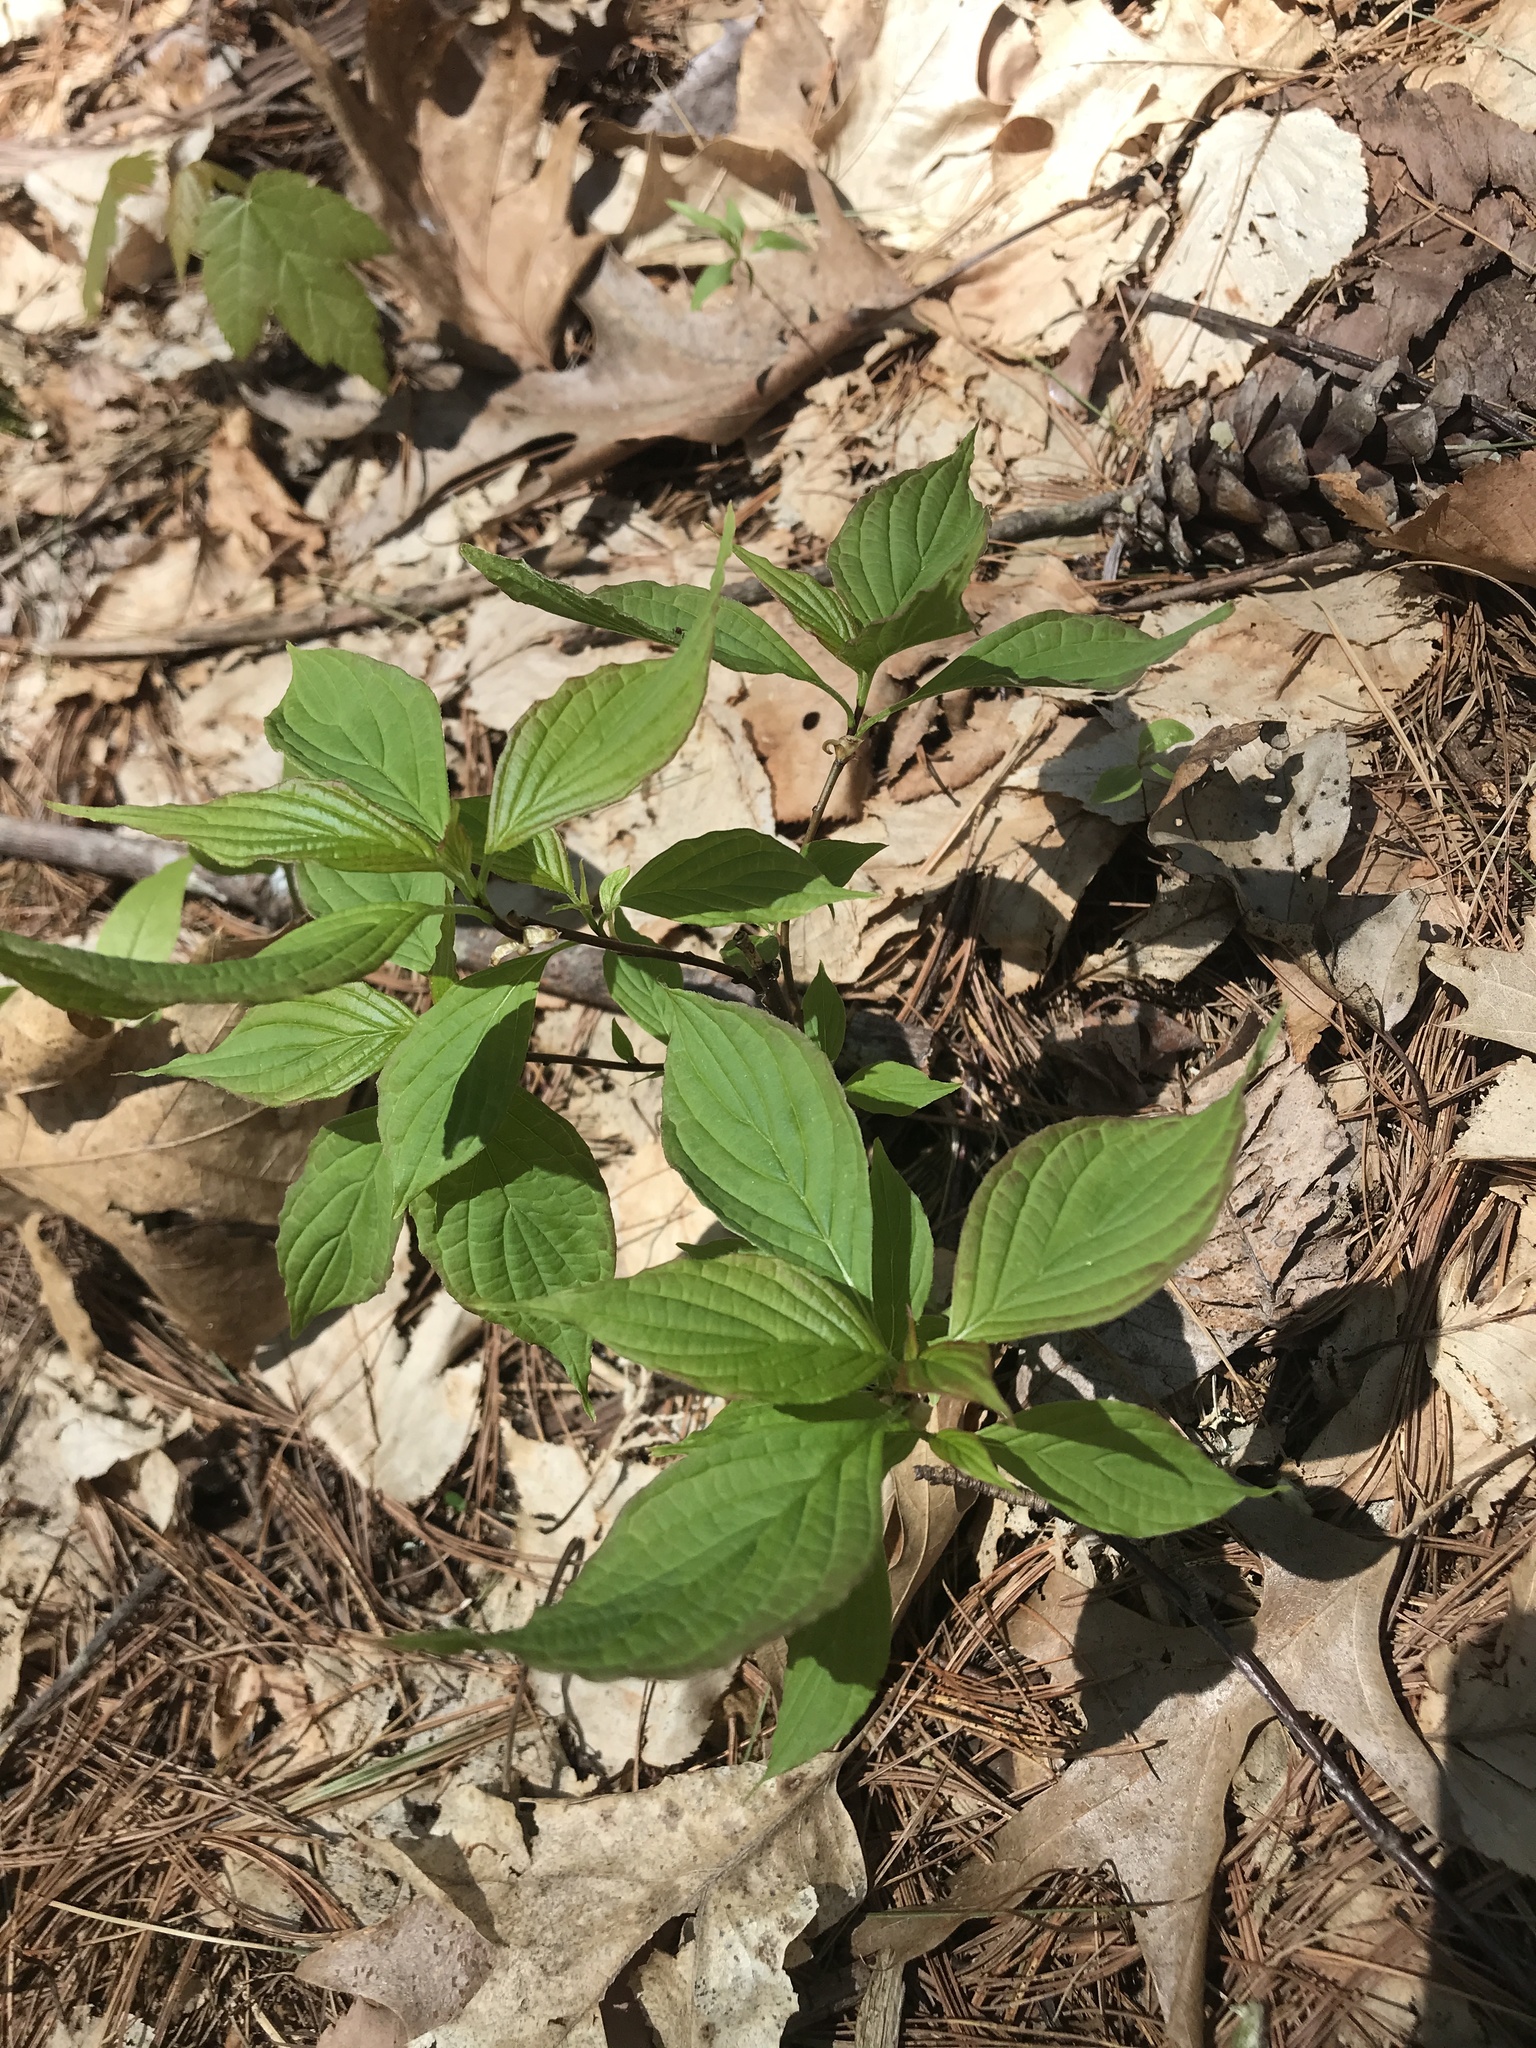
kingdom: Plantae
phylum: Tracheophyta
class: Magnoliopsida
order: Cornales
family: Cornaceae
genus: Cornus
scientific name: Cornus alternifolia
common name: Pagoda dogwood
